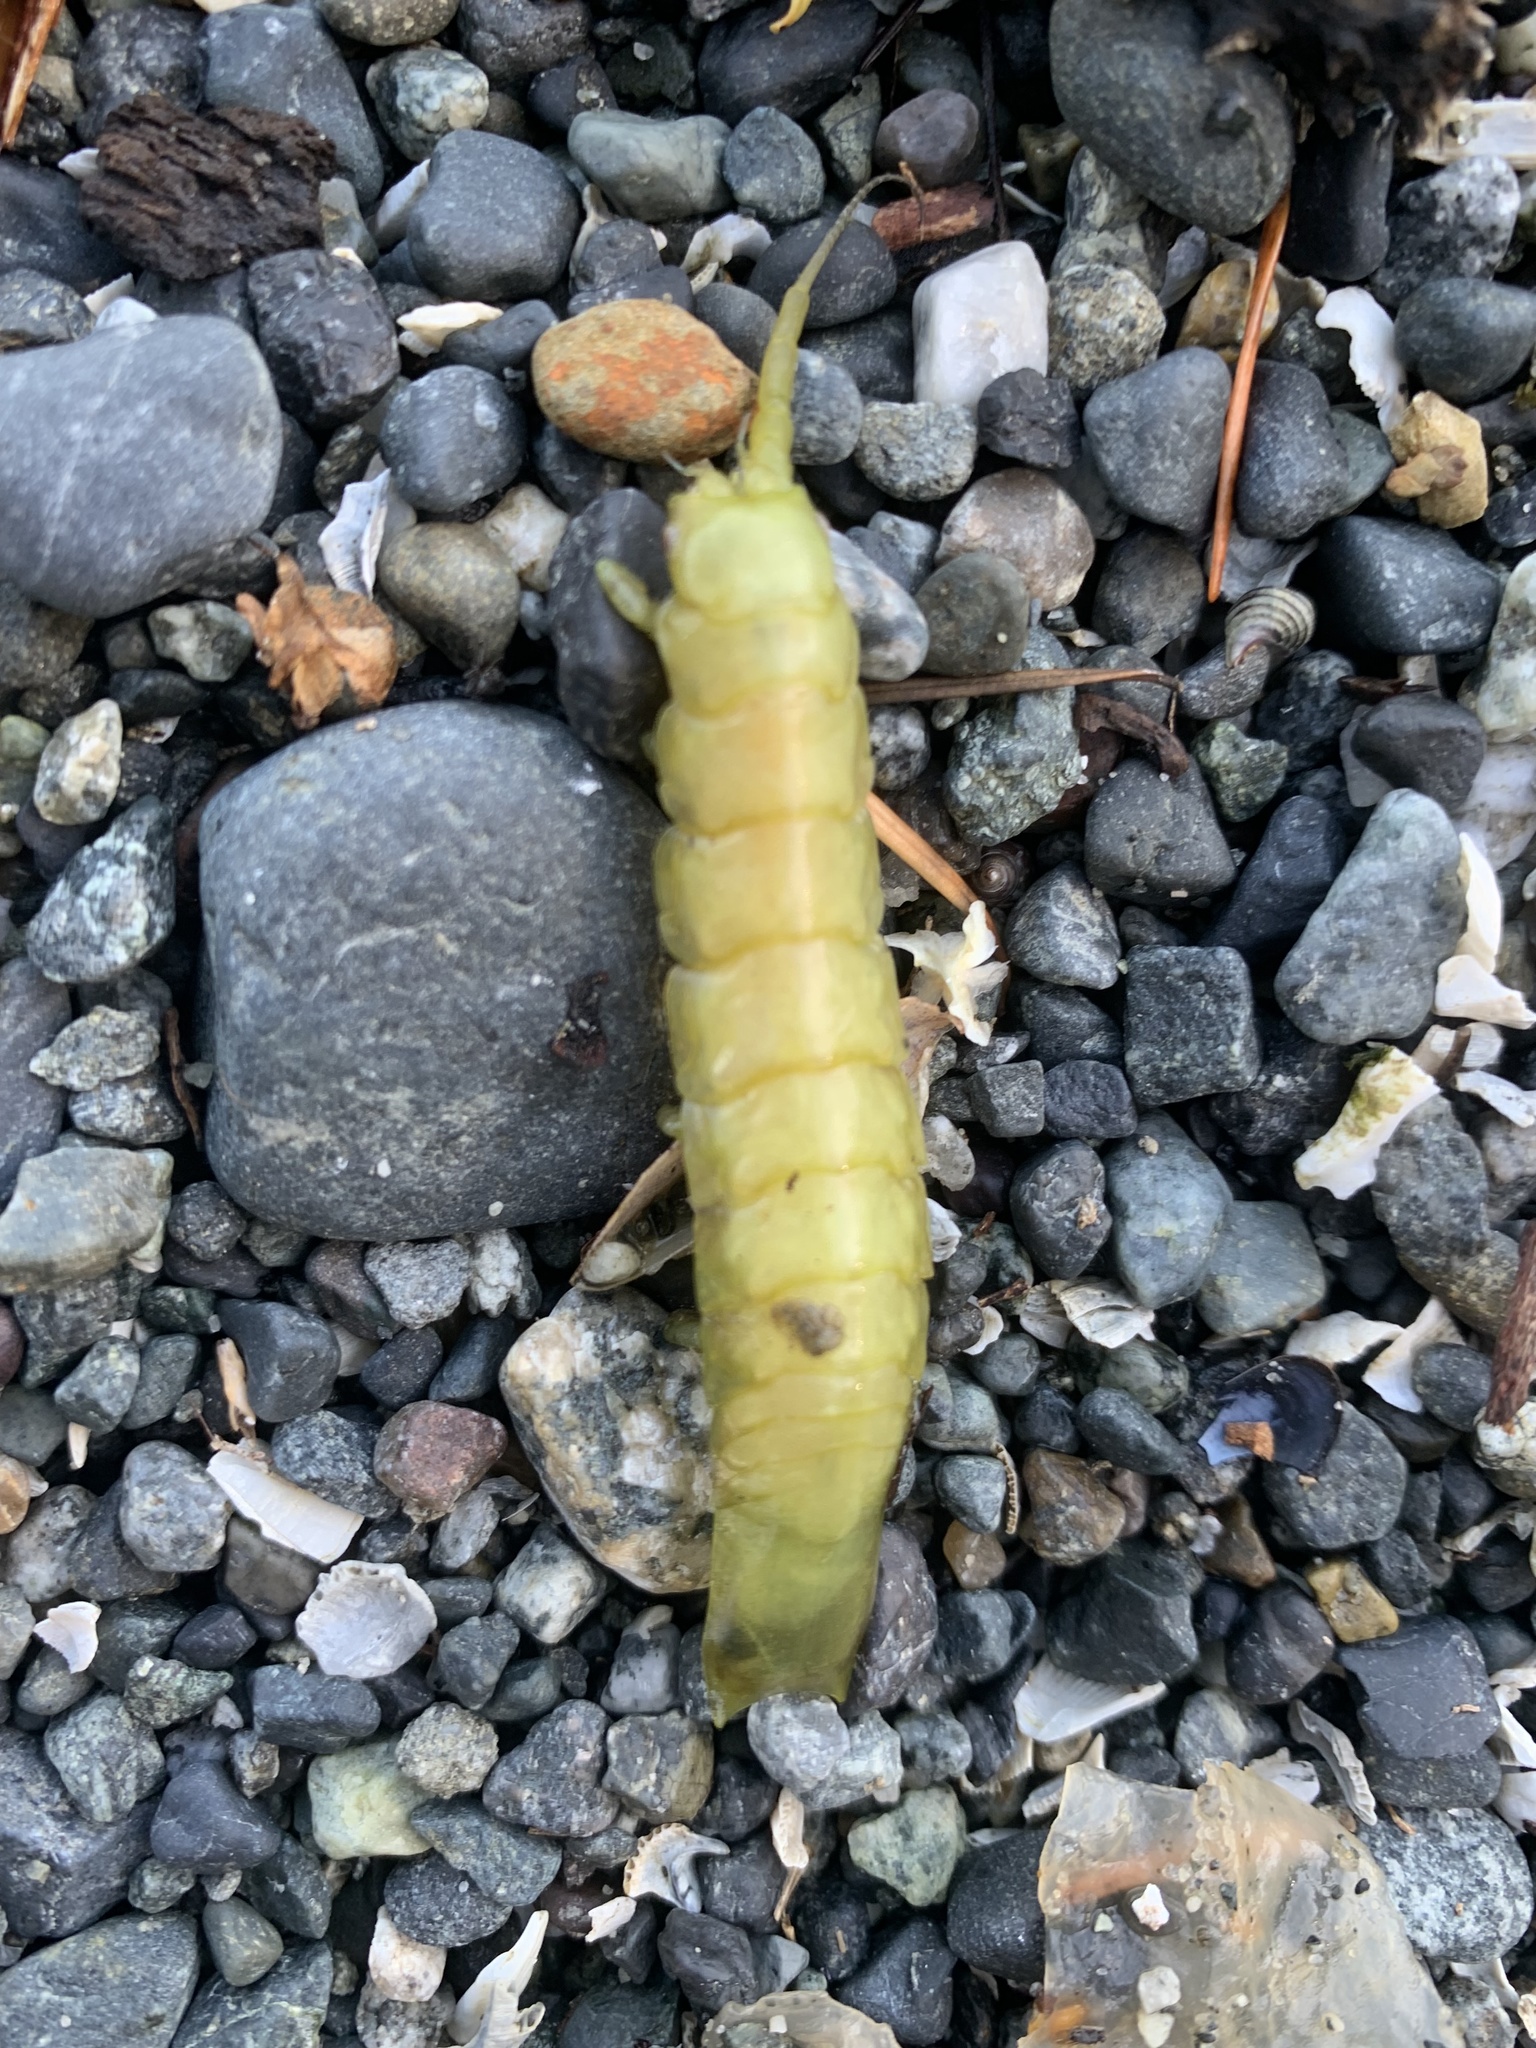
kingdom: Animalia
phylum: Arthropoda
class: Malacostraca
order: Isopoda
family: Idoteidae
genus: Pentidotea
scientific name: Pentidotea resecata
